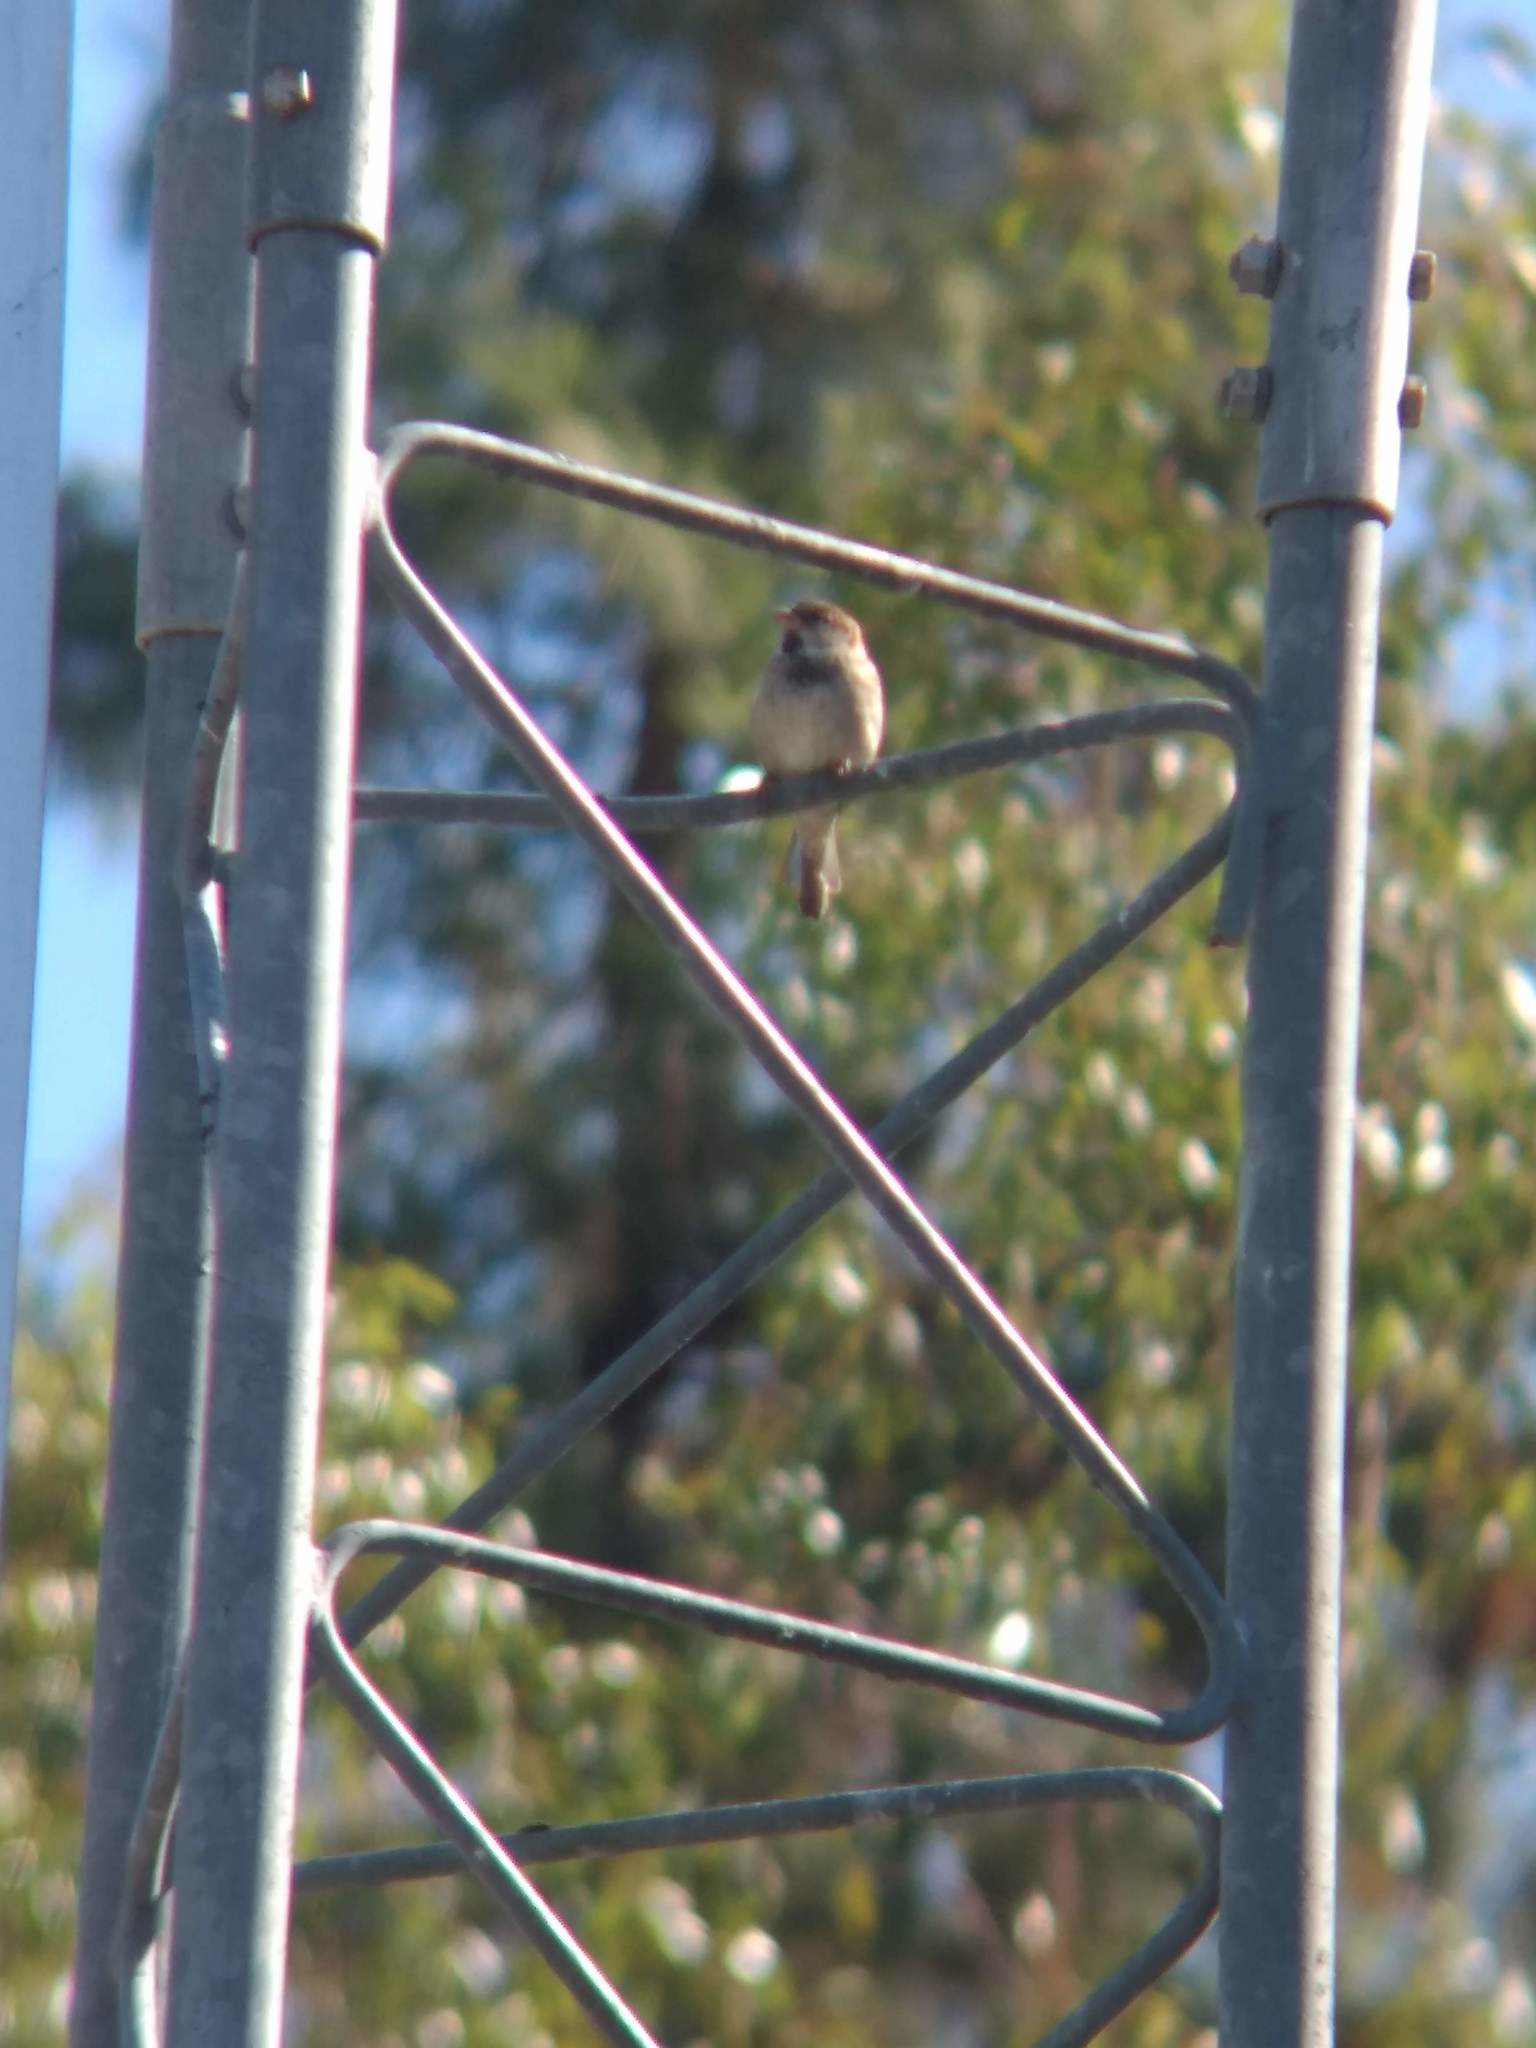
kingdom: Animalia
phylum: Chordata
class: Aves
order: Passeriformes
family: Passeridae
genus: Passer
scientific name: Passer domesticus
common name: House sparrow
